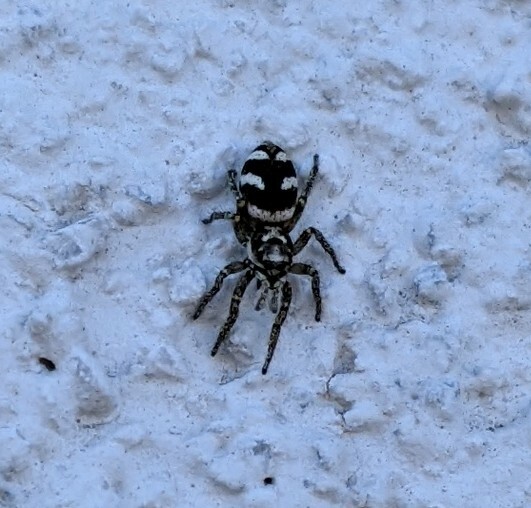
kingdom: Animalia
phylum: Arthropoda
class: Arachnida
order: Araneae
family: Salticidae
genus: Salticus
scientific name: Salticus scenicus
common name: Zebra jumper
